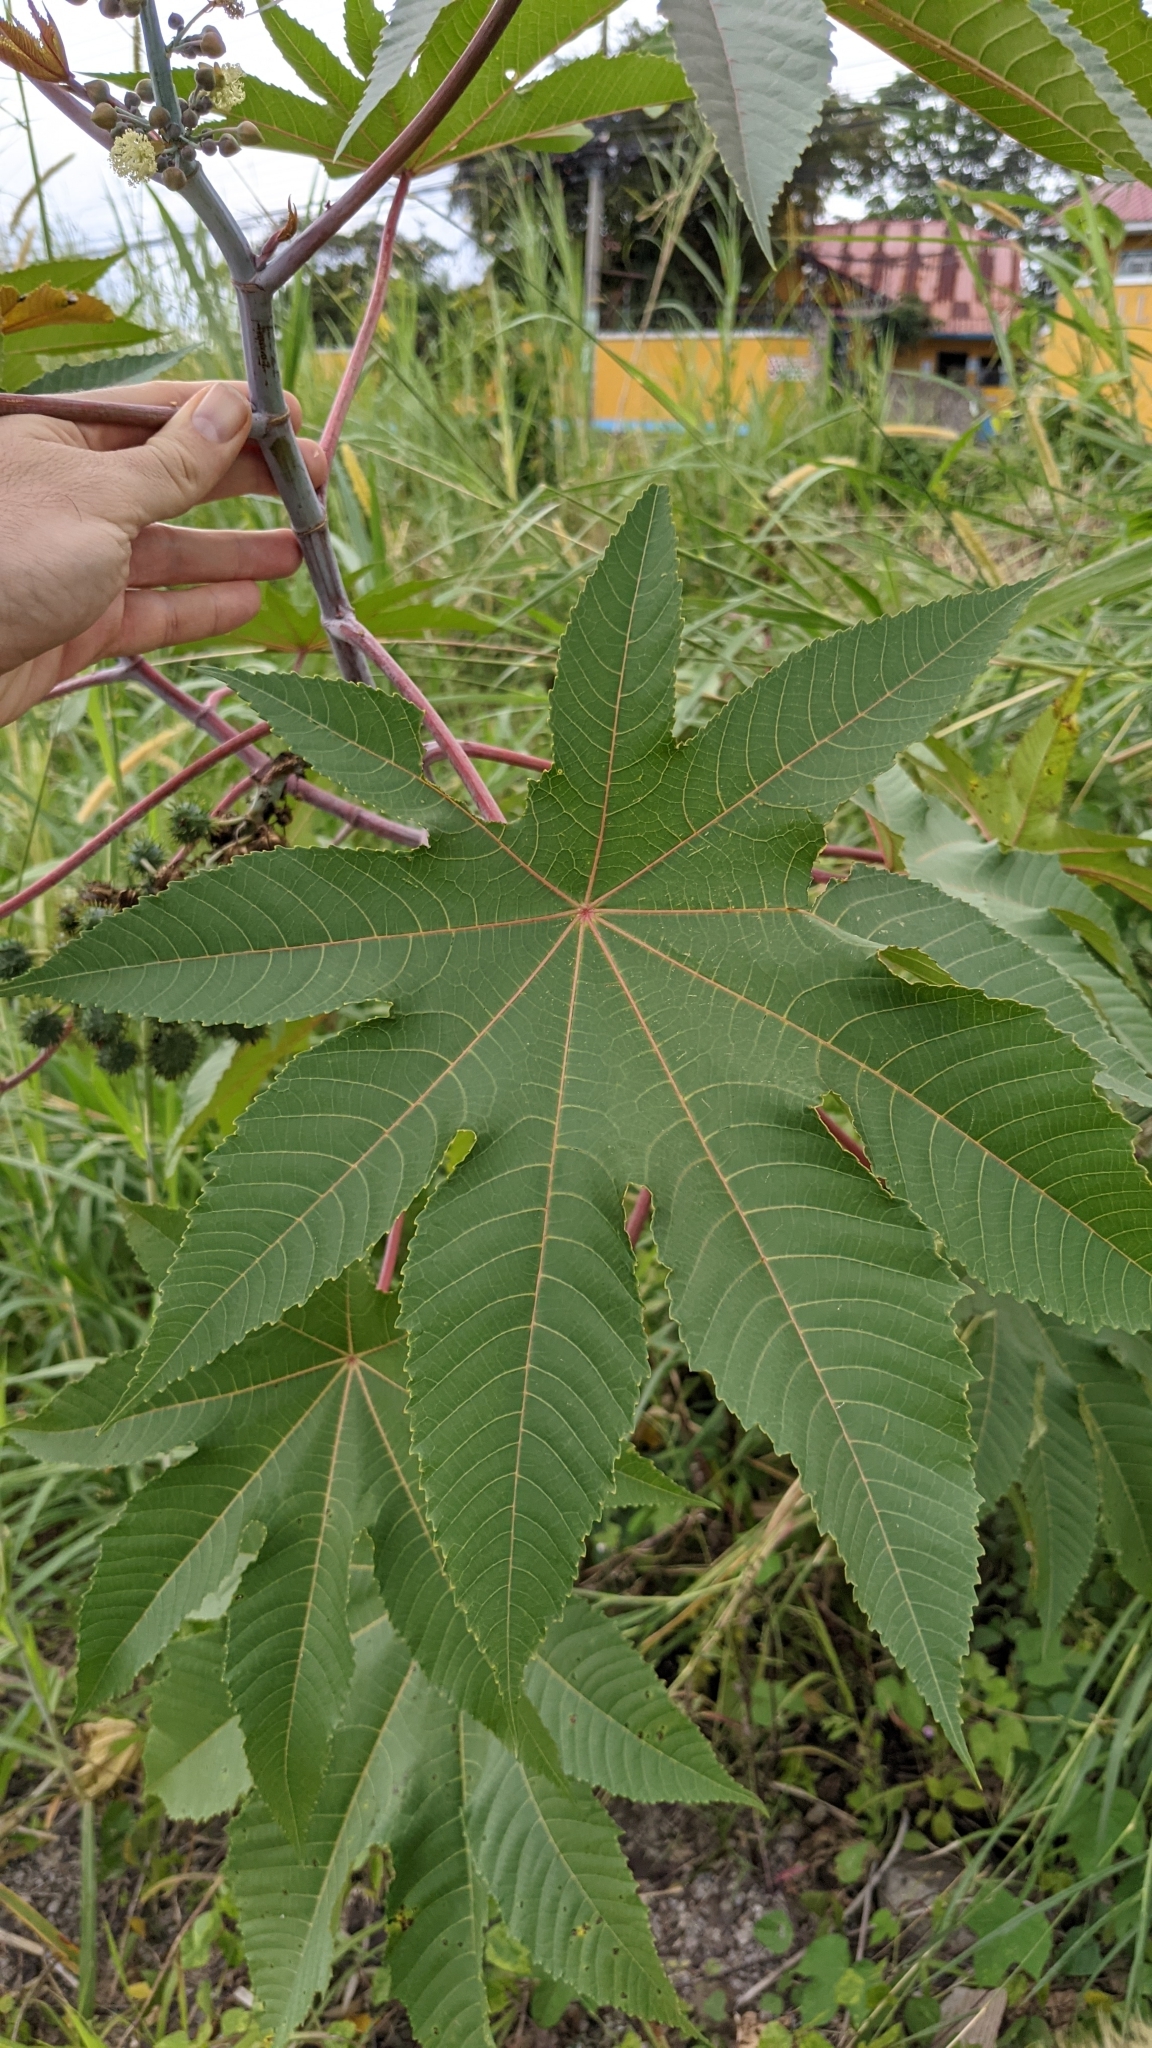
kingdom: Plantae
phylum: Tracheophyta
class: Magnoliopsida
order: Malpighiales
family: Euphorbiaceae
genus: Ricinus
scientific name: Ricinus communis
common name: Castor-oil-plant
